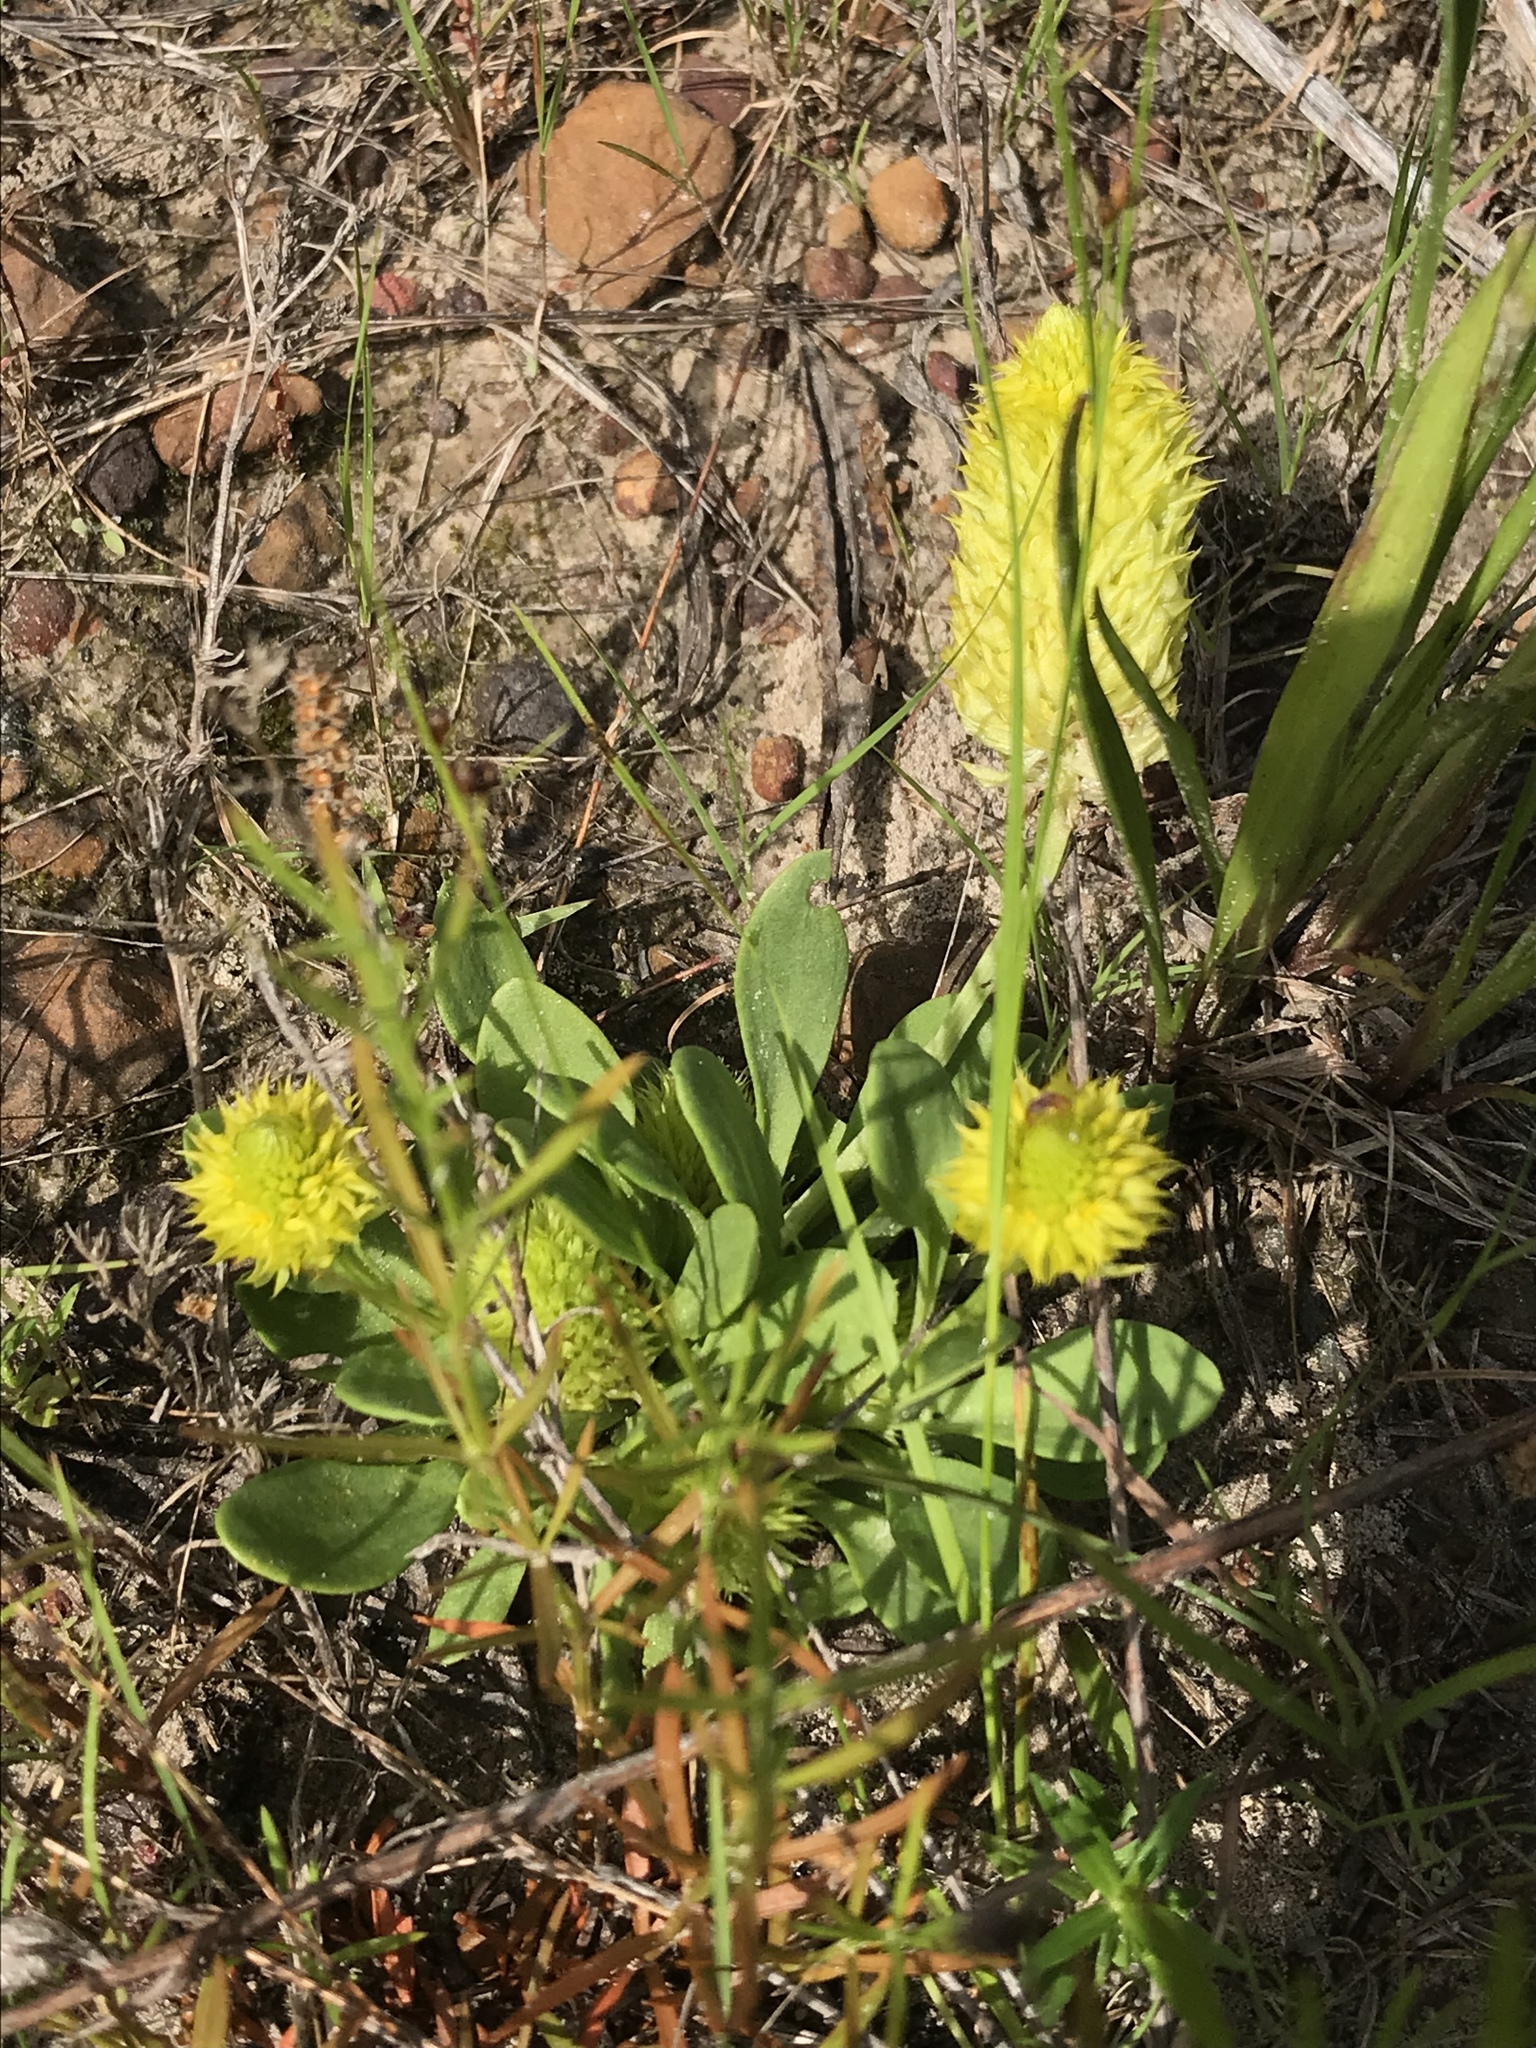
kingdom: Plantae
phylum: Tracheophyta
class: Magnoliopsida
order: Fabales
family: Polygalaceae
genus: Polygala
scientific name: Polygala nana
